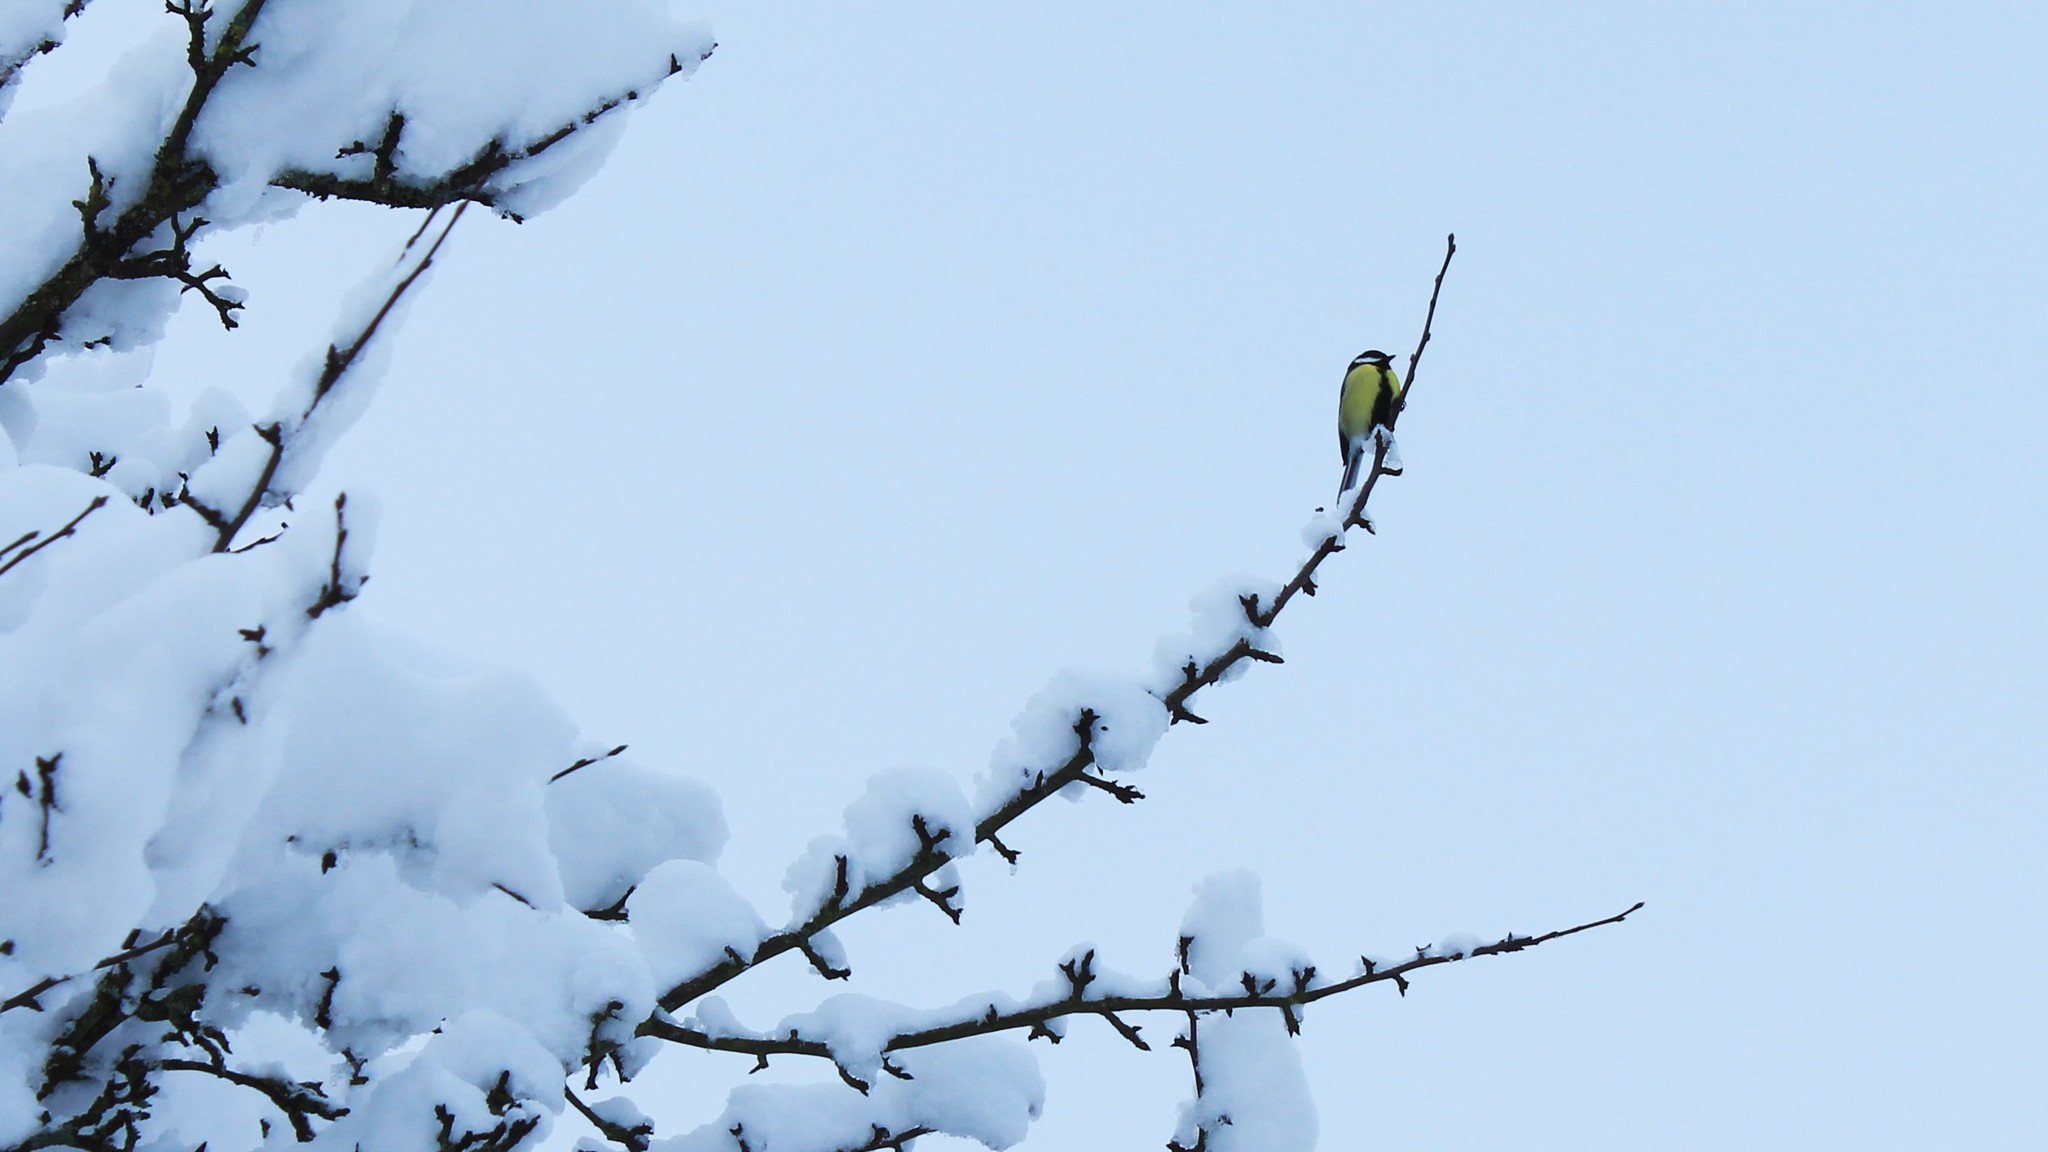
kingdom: Animalia
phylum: Chordata
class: Aves
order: Passeriformes
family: Paridae
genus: Parus
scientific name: Parus major
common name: Great tit
